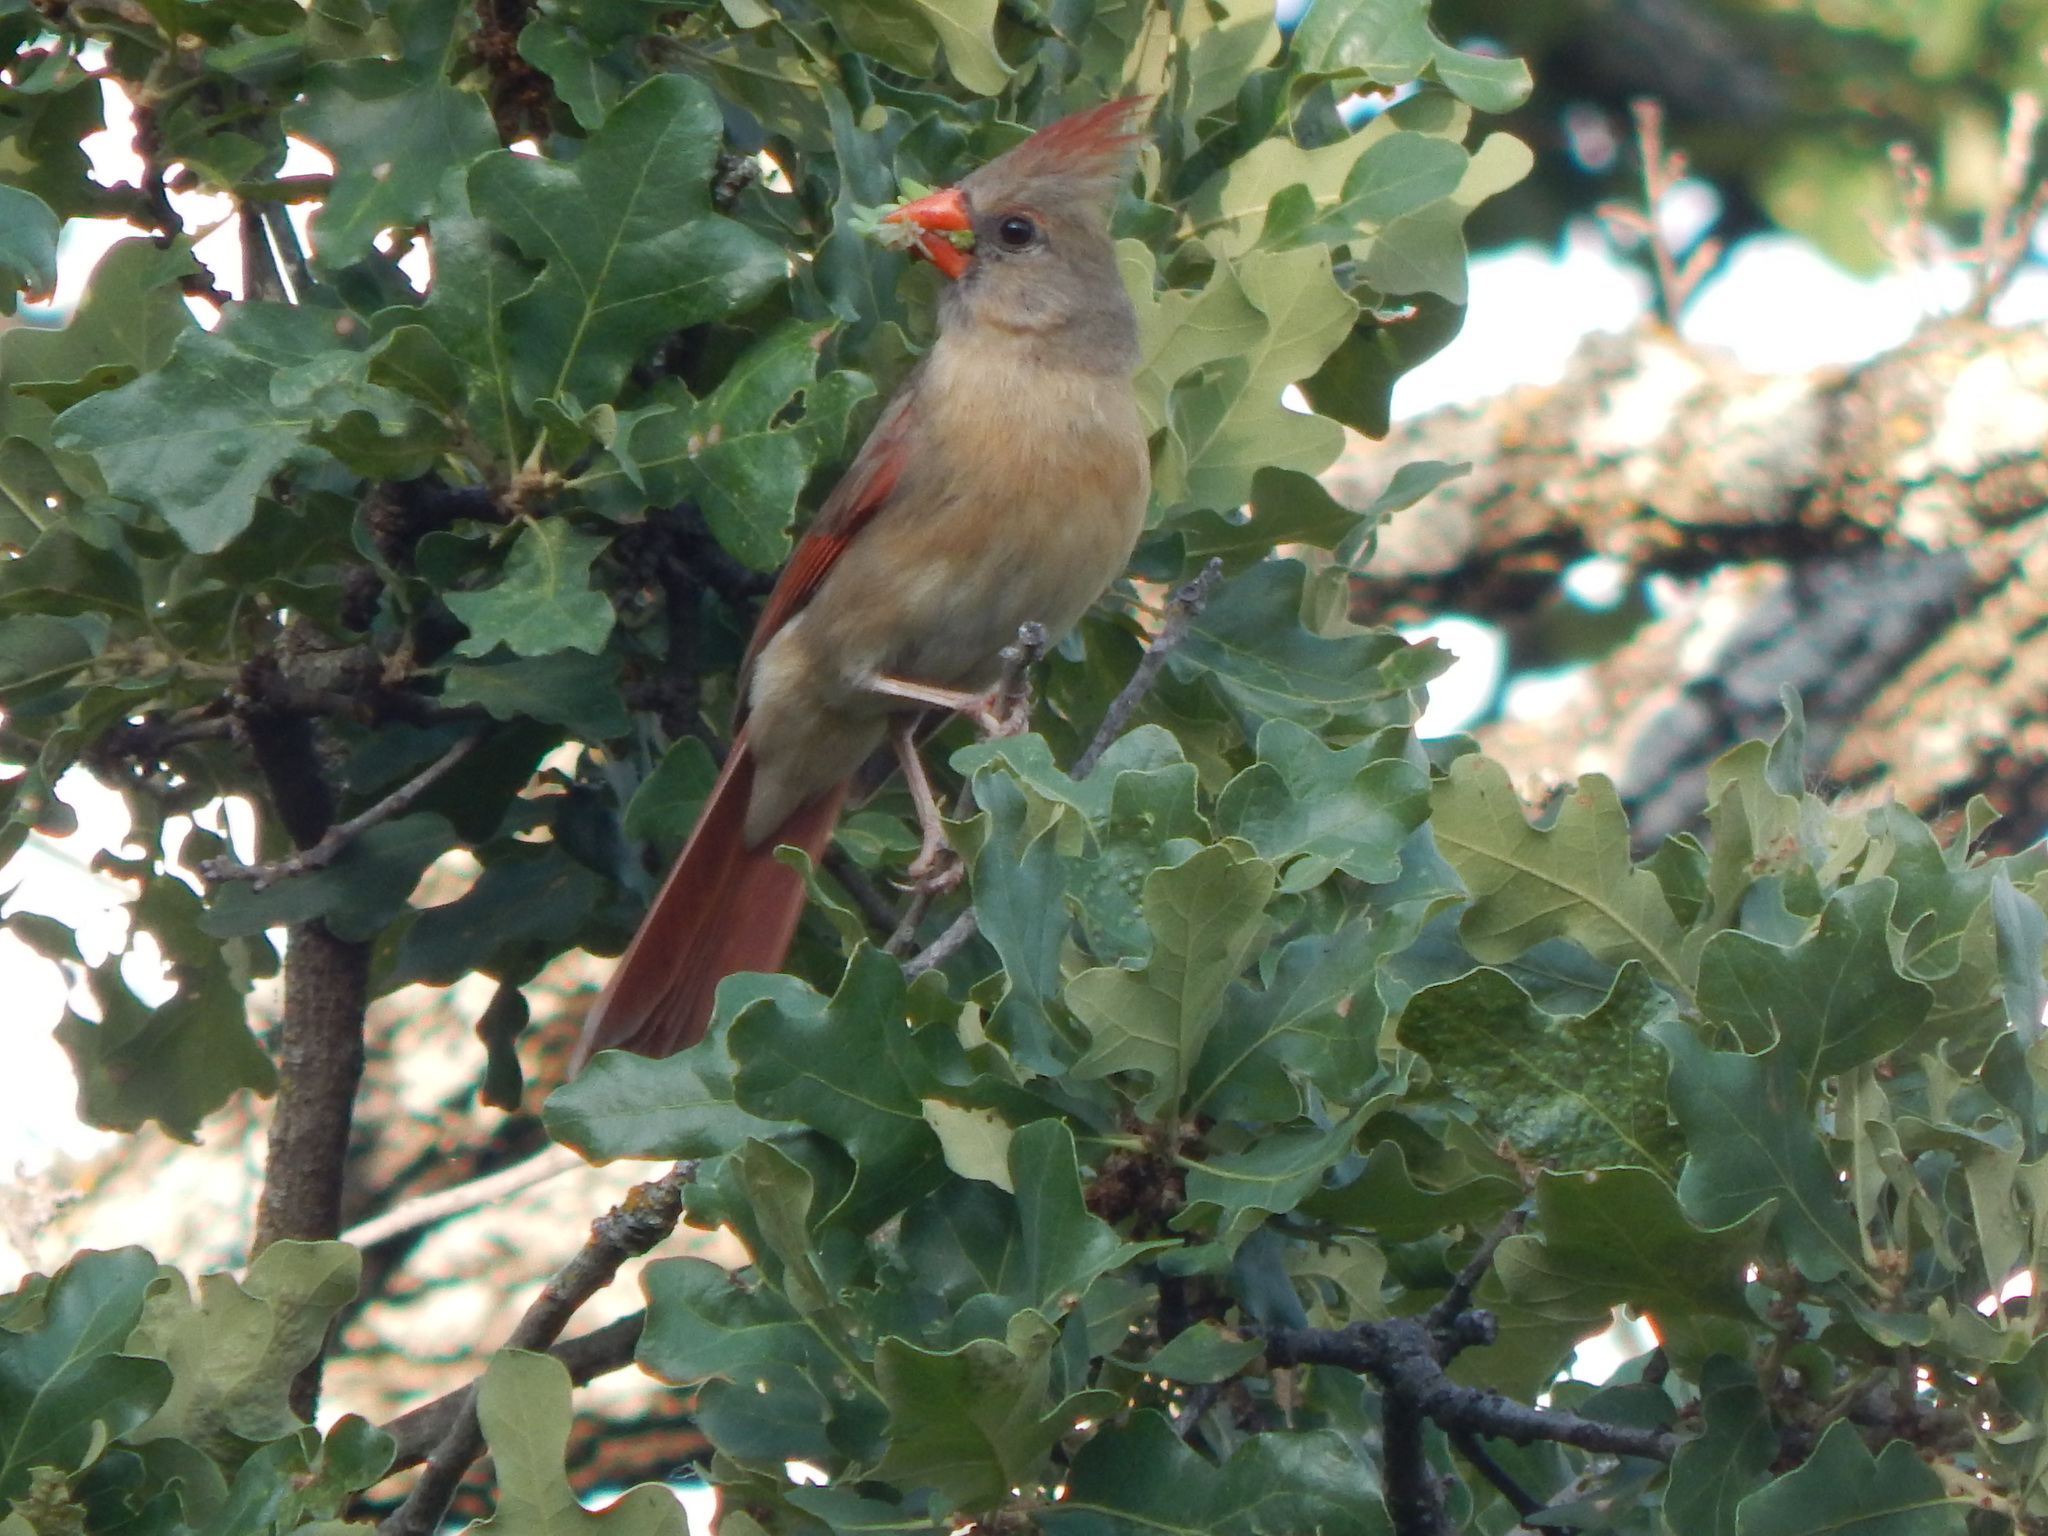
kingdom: Animalia
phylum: Chordata
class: Aves
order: Passeriformes
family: Cardinalidae
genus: Cardinalis
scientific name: Cardinalis cardinalis
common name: Northern cardinal
